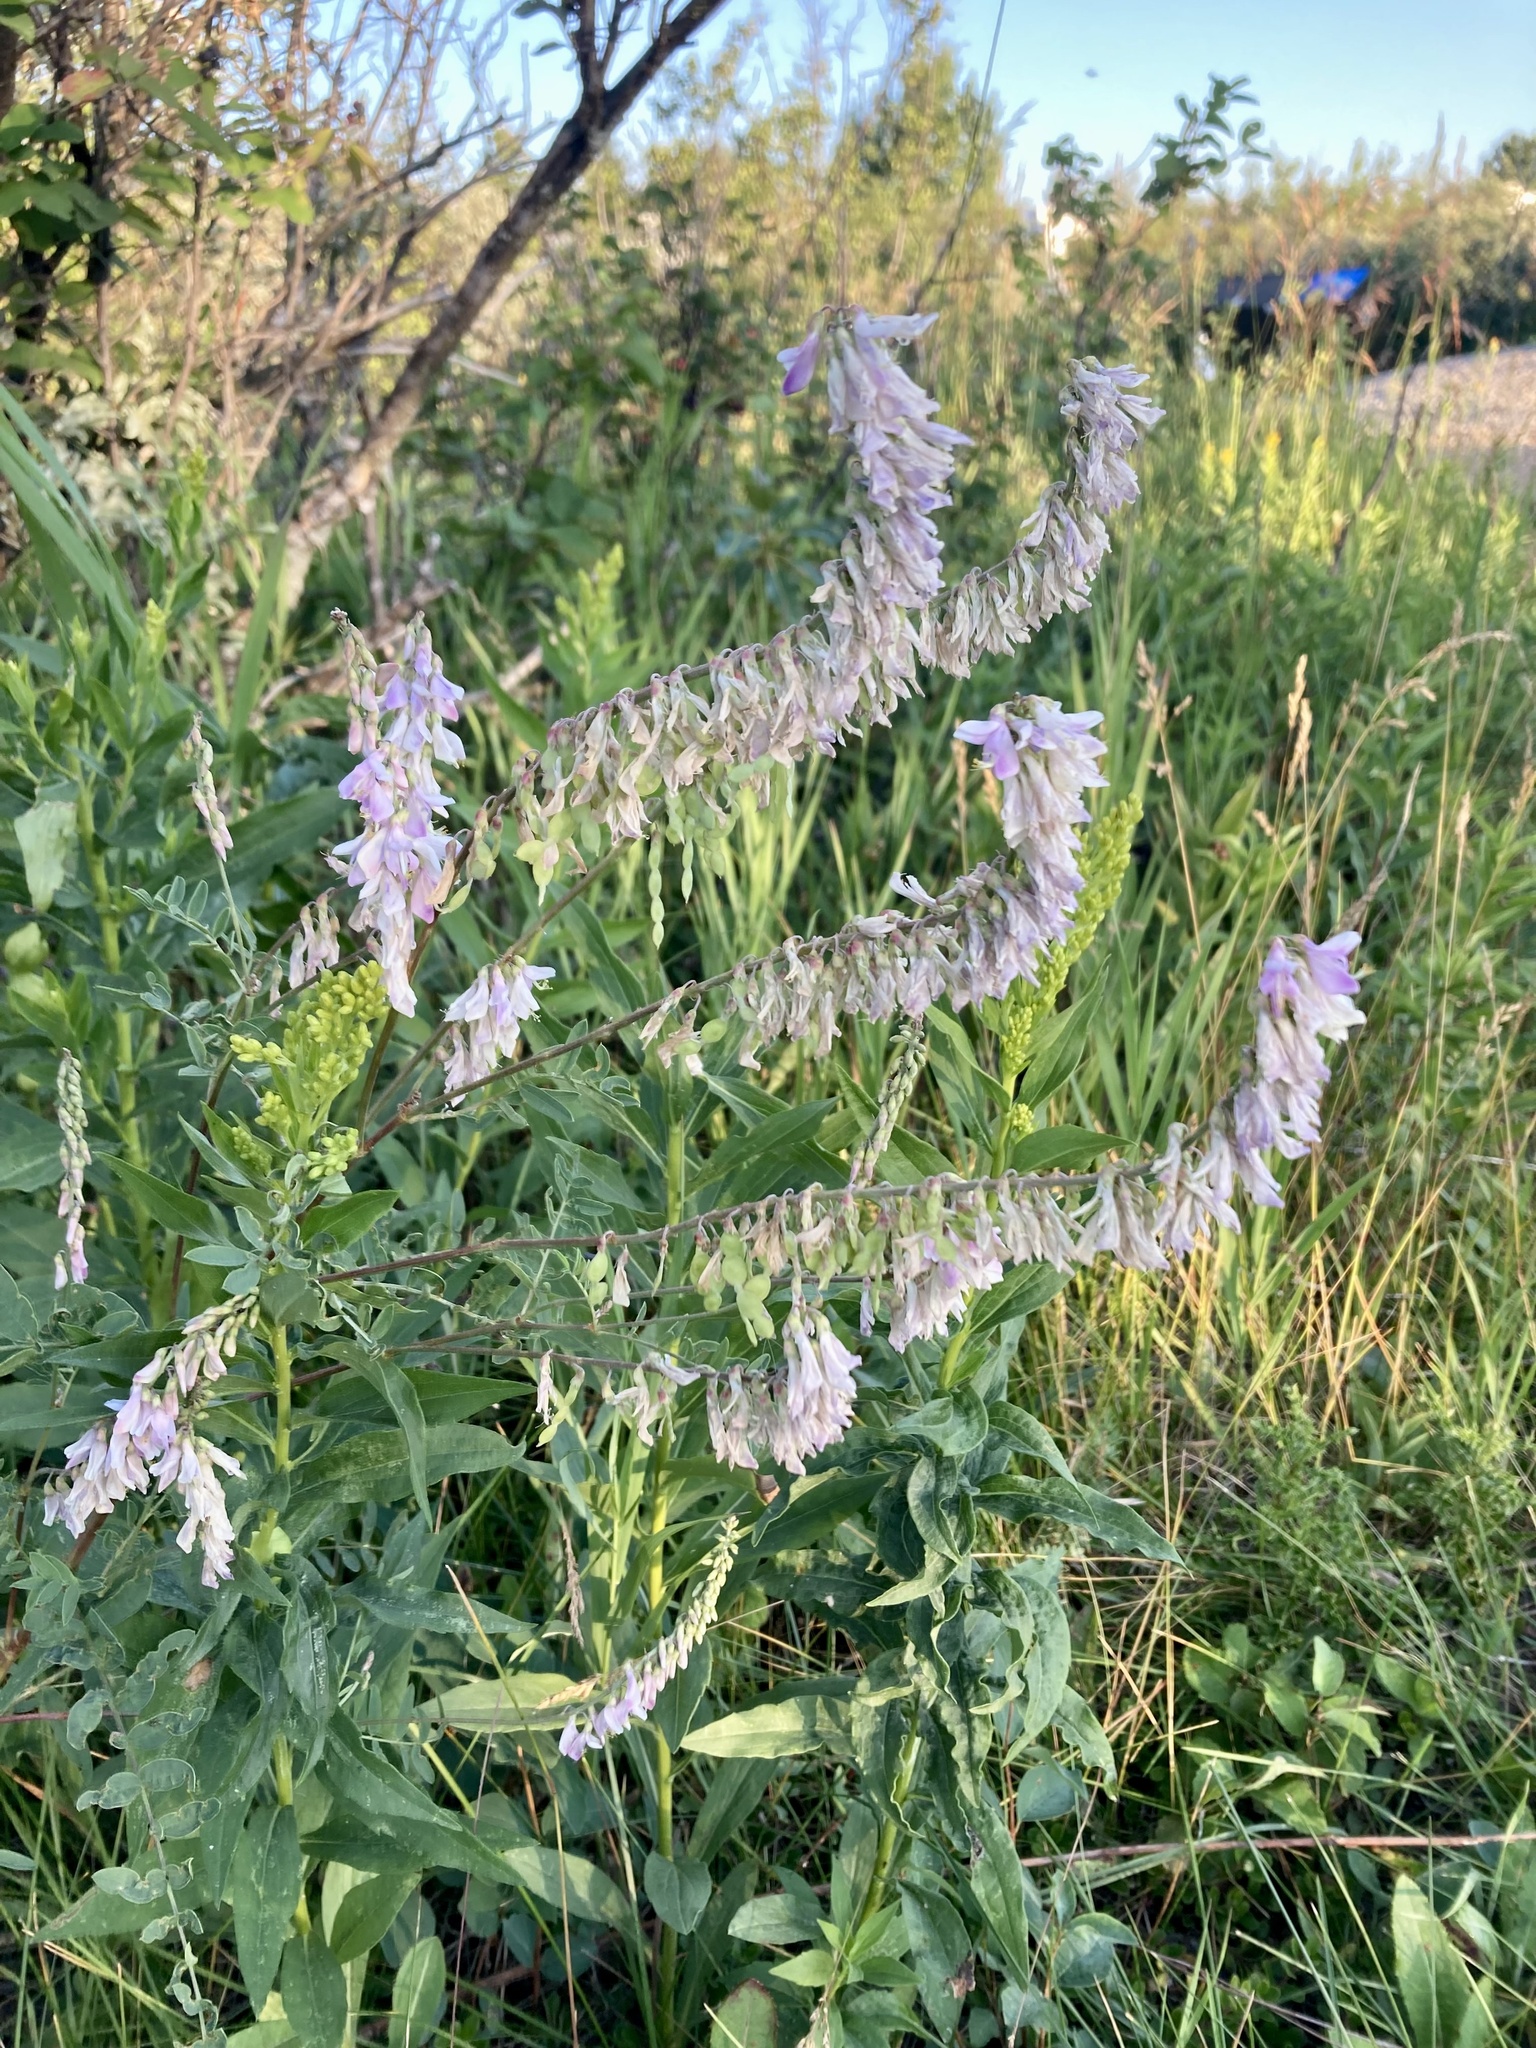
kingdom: Plantae
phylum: Tracheophyta
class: Magnoliopsida
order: Fabales
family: Fabaceae
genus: Hedysarum
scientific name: Hedysarum alpinum
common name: Alpine sweet-vetch
